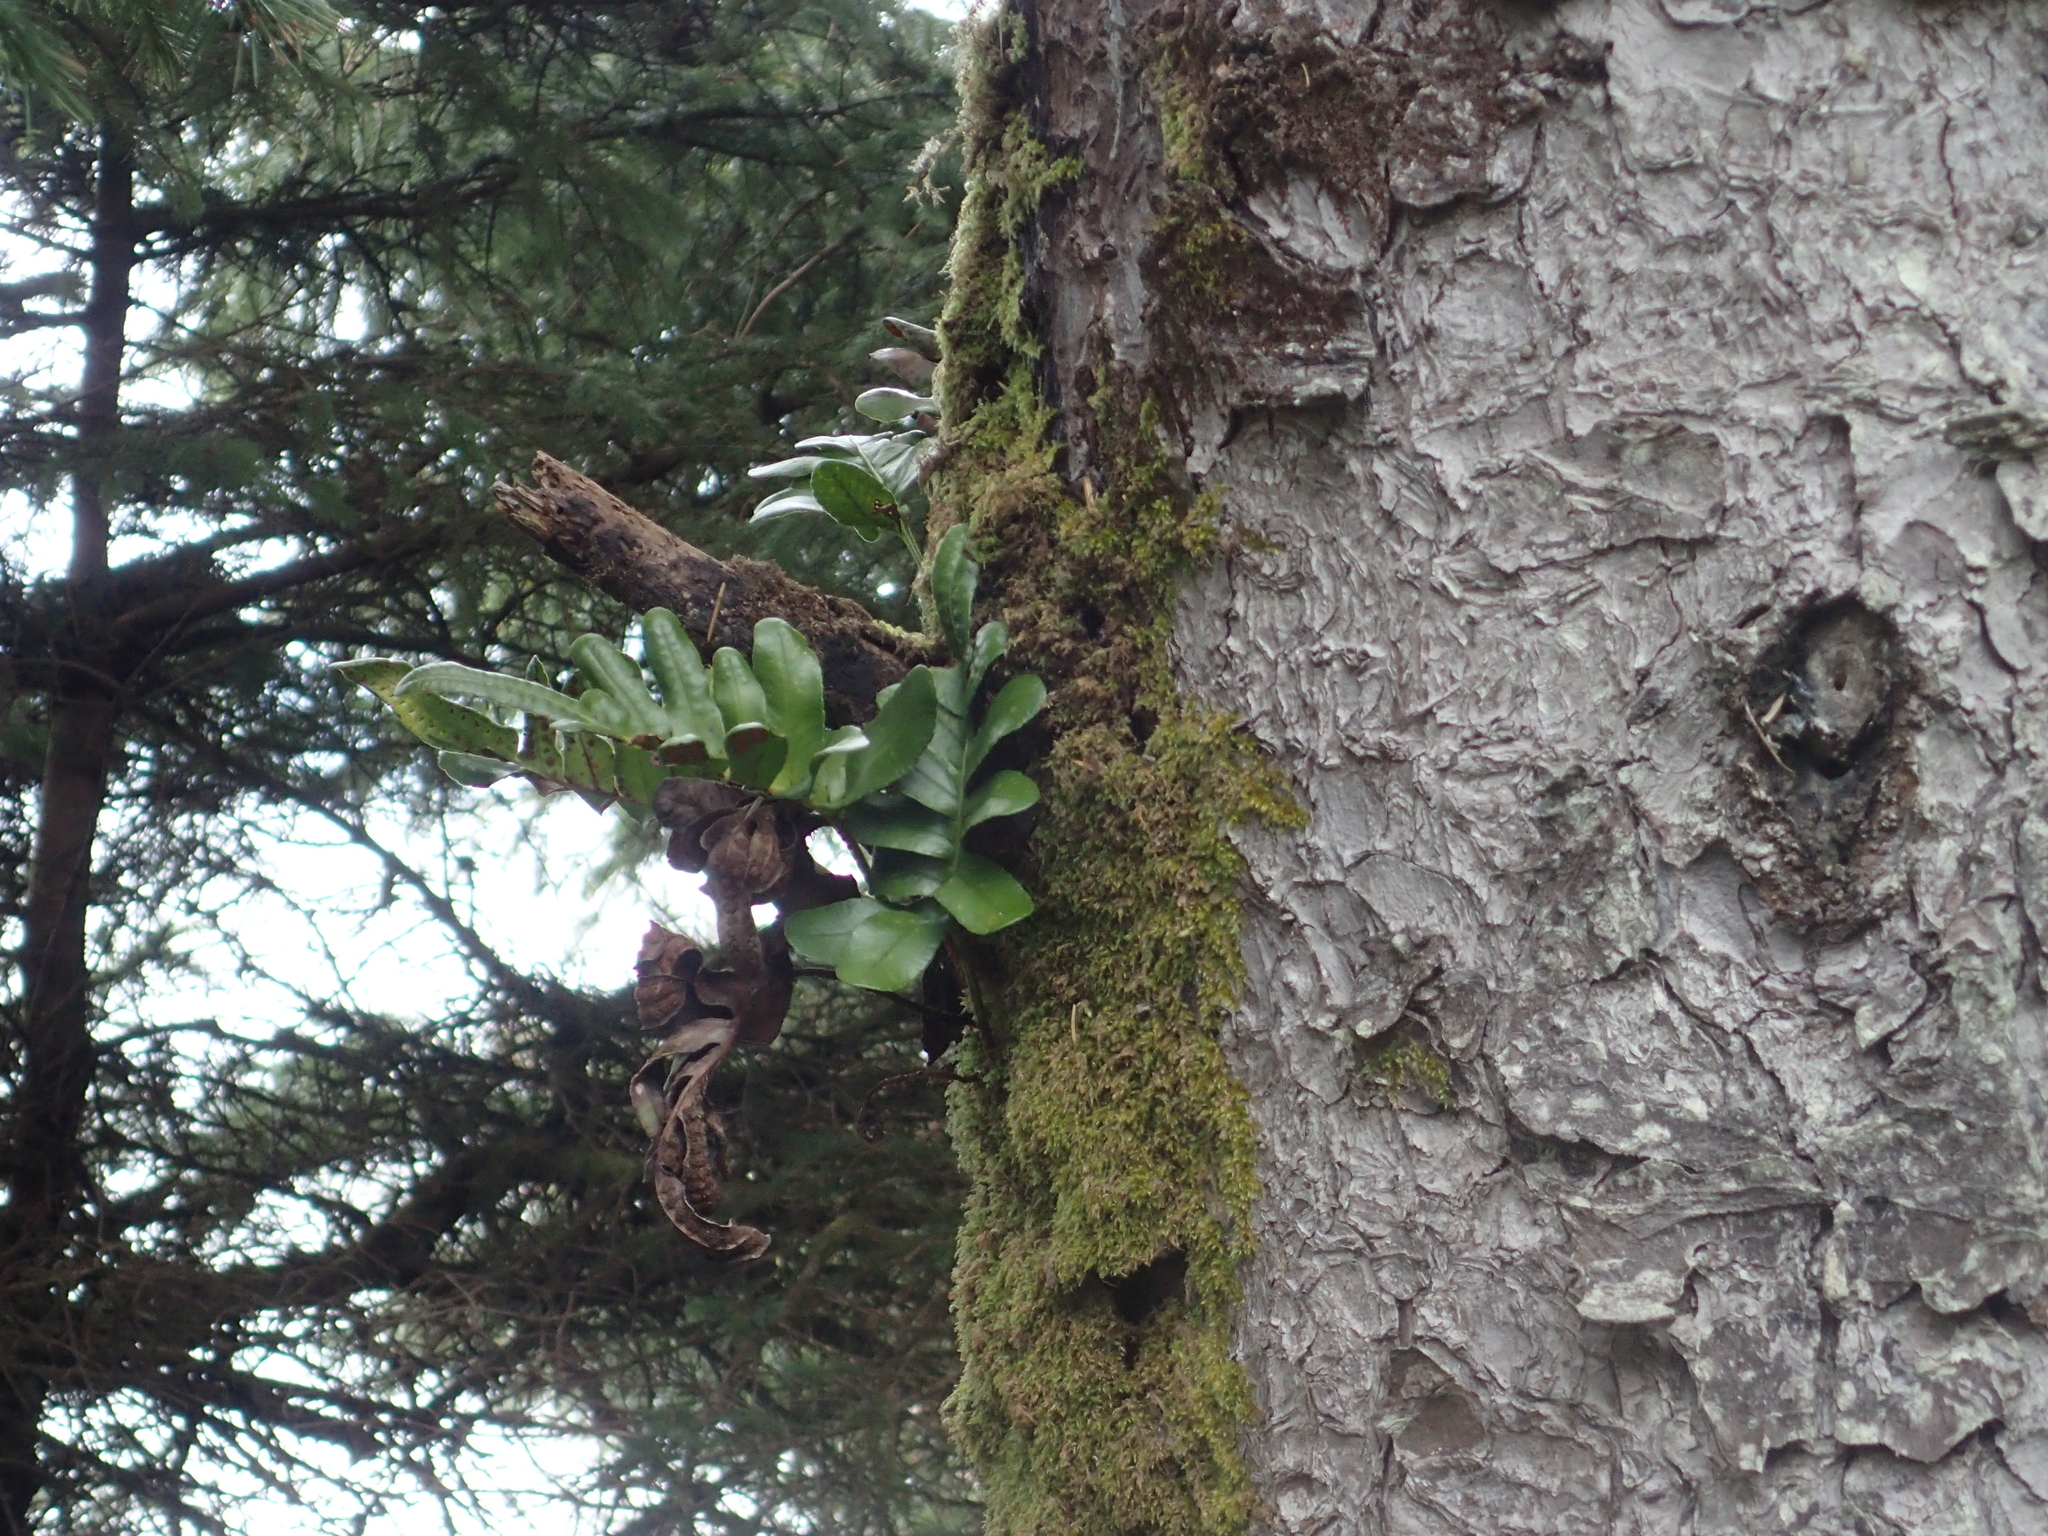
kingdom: Plantae
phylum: Tracheophyta
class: Polypodiopsida
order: Polypodiales
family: Polypodiaceae
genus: Polypodium
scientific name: Polypodium scouleri
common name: Scouler's polypody
